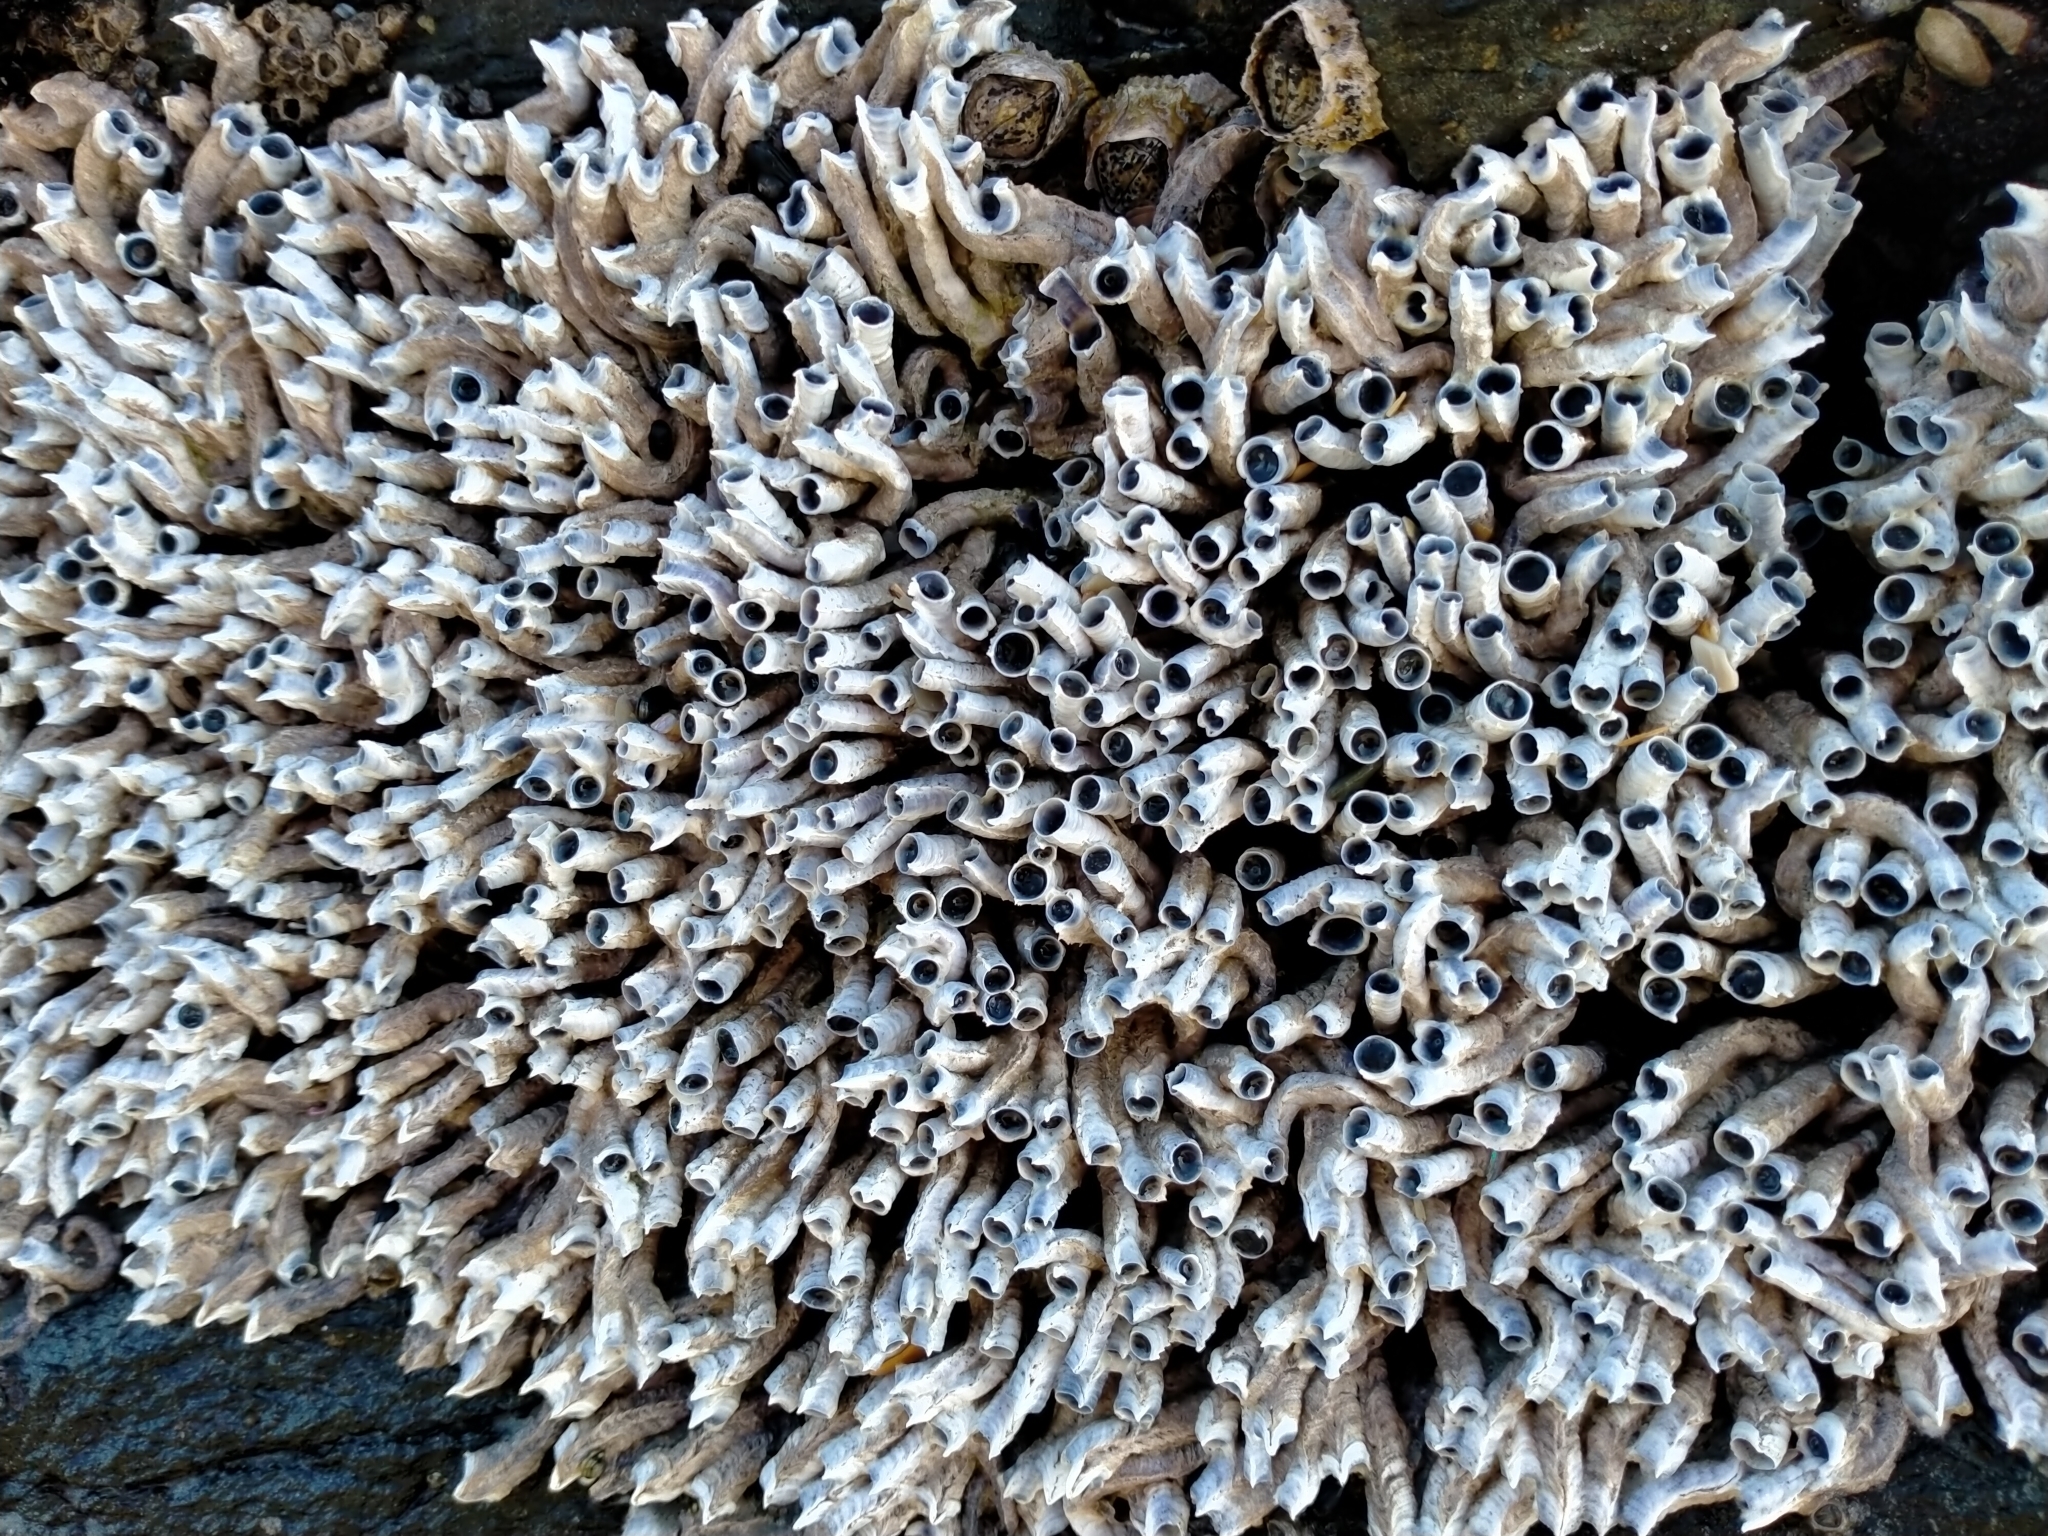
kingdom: Animalia
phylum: Annelida
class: Polychaeta
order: Sabellida
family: Serpulidae
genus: Spirobranchus
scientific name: Spirobranchus cariniferus
